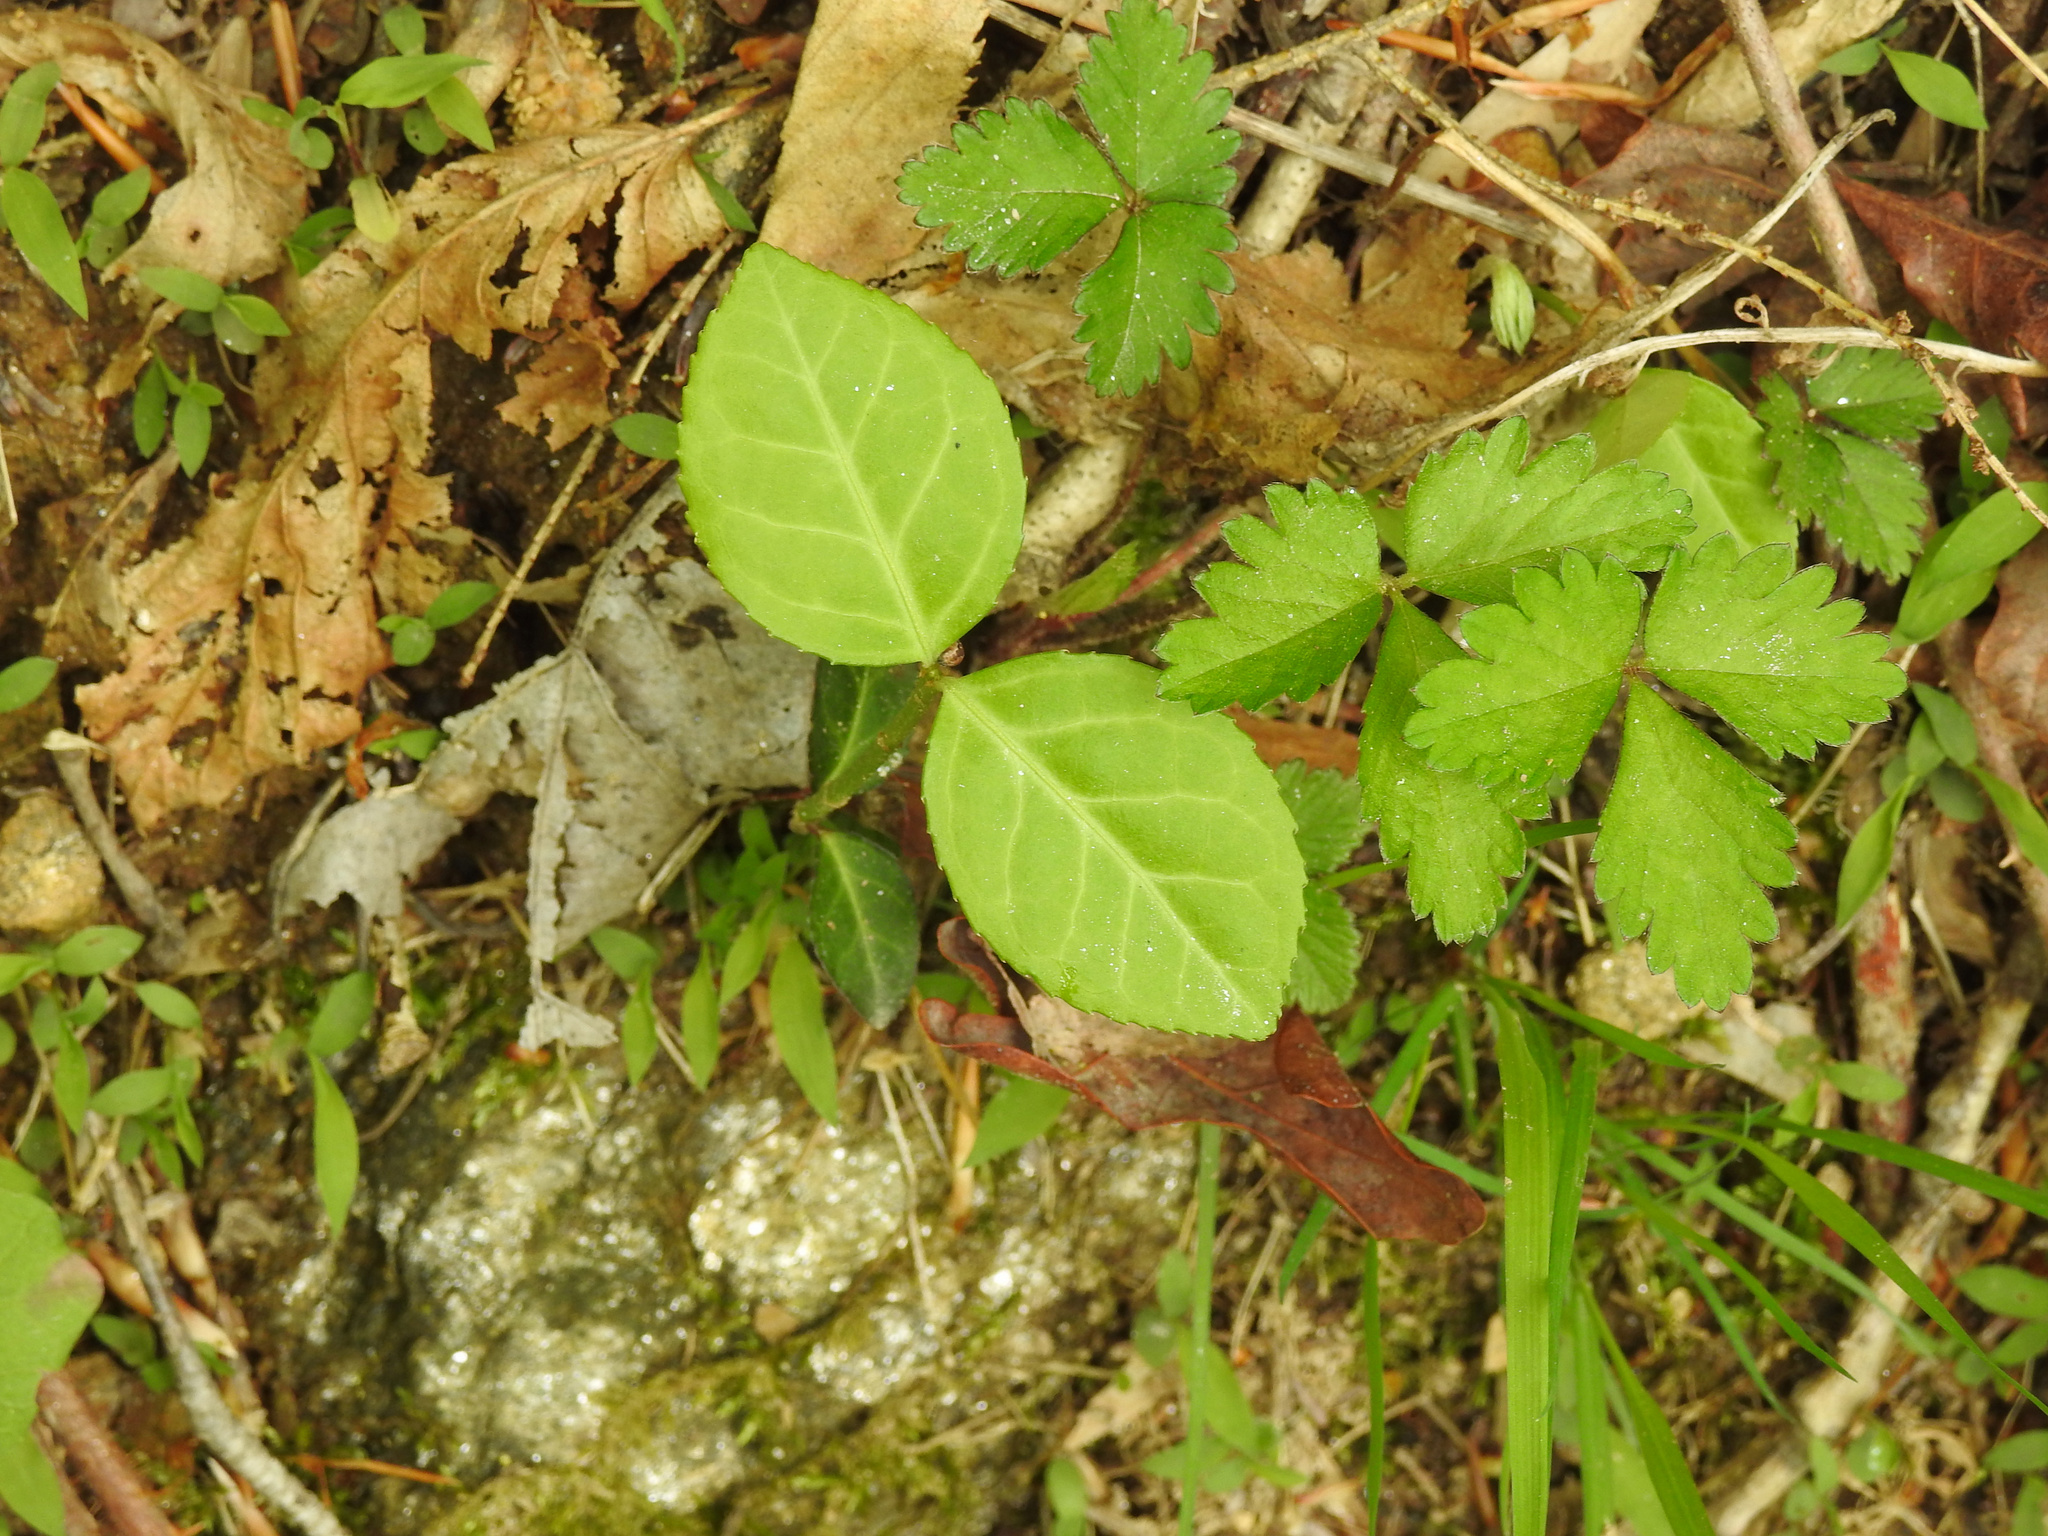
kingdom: Plantae
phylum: Tracheophyta
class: Magnoliopsida
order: Celastrales
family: Celastraceae
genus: Euonymus
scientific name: Euonymus fortunei
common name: Climbing euonymus
